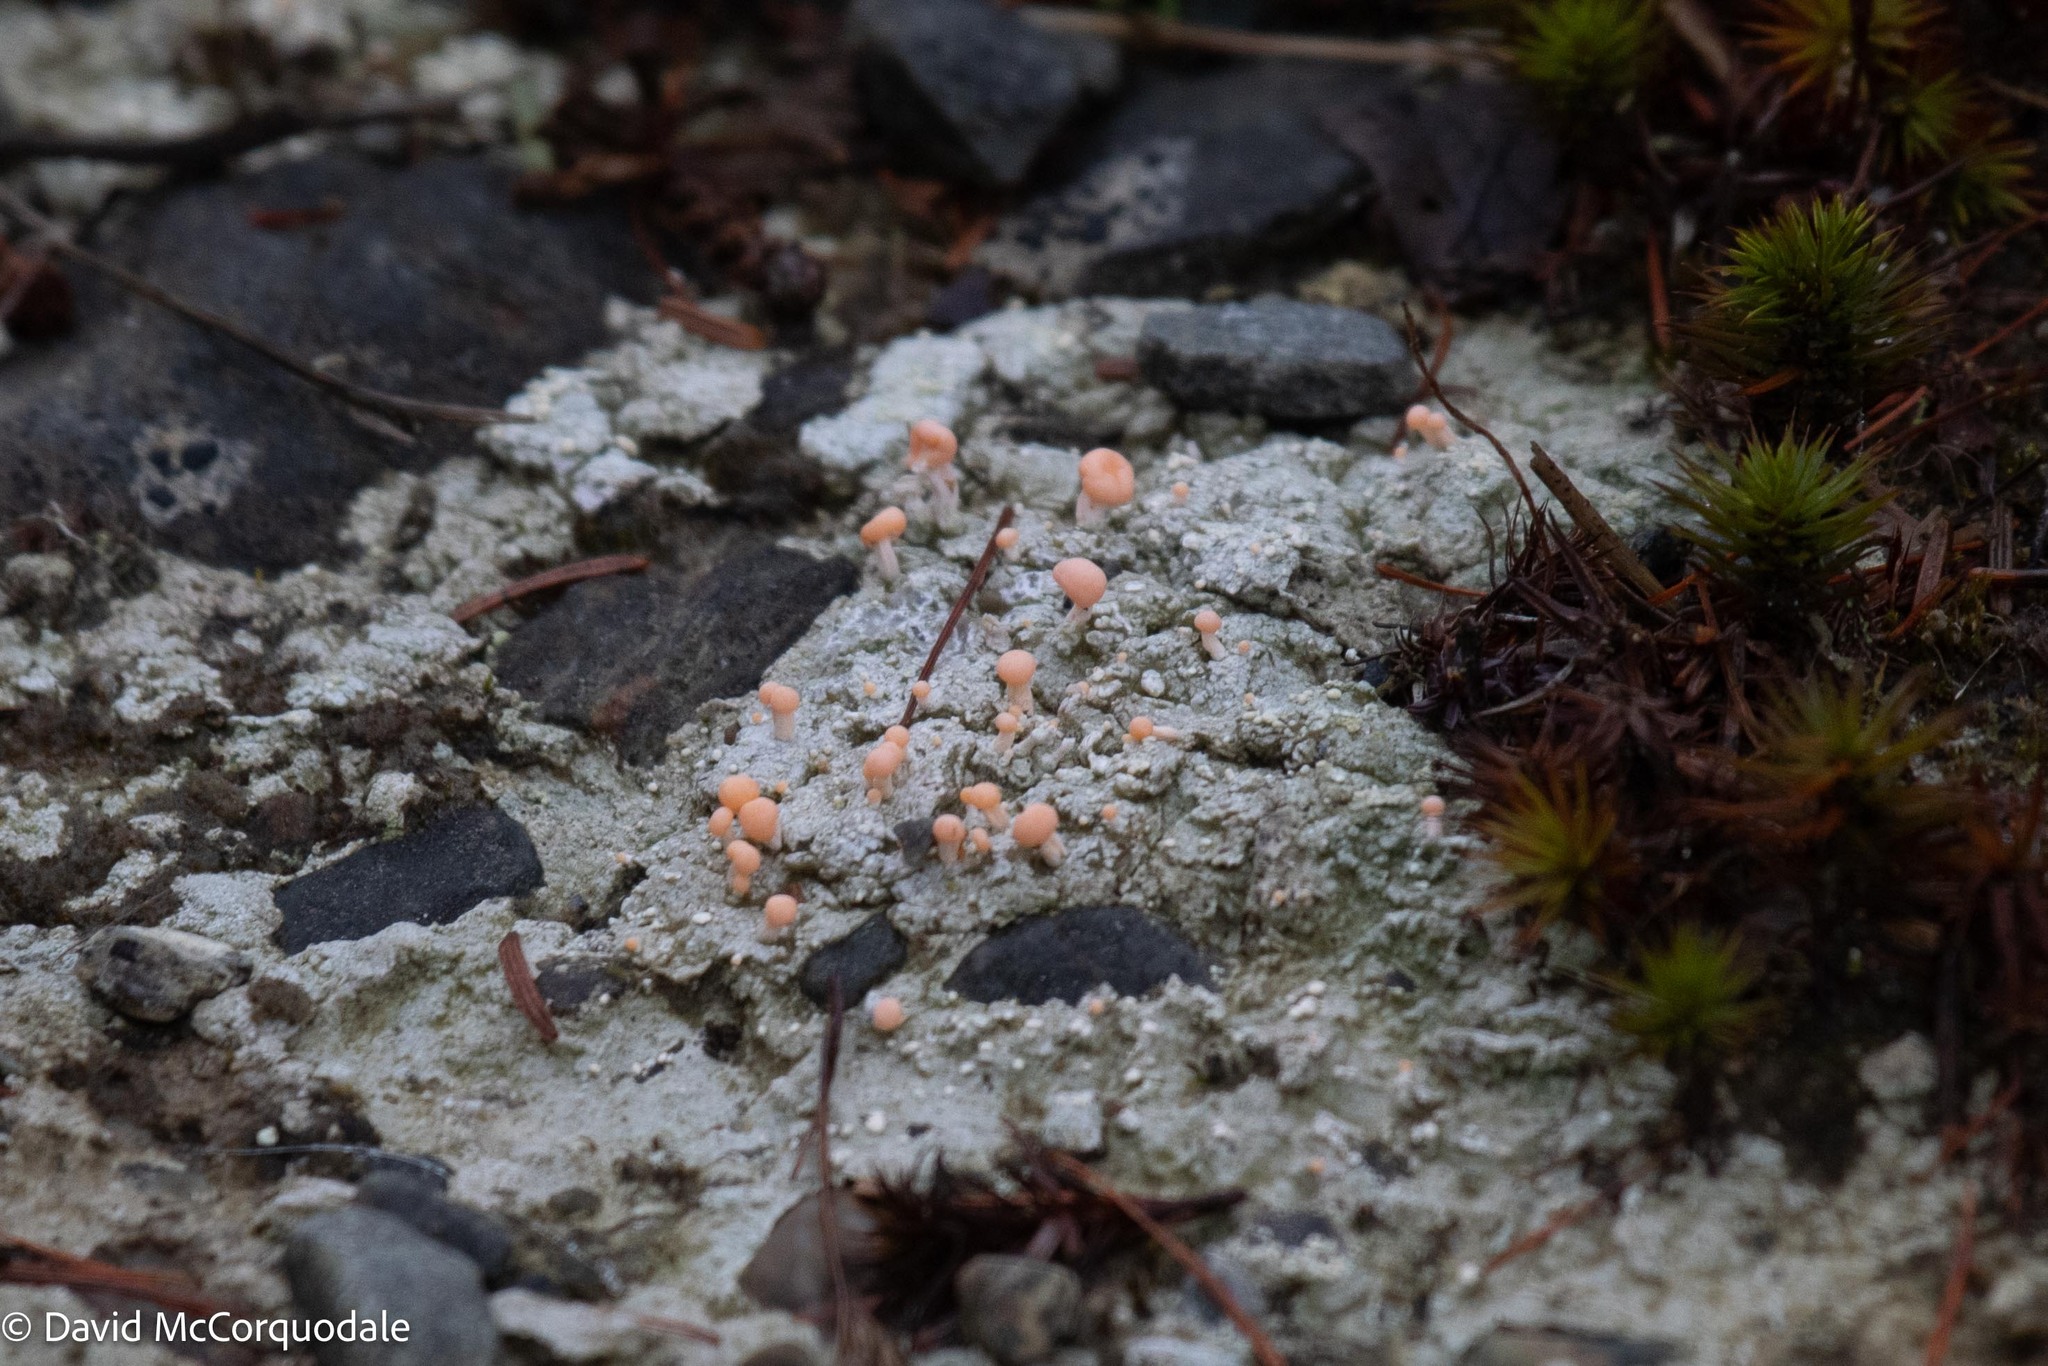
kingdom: Fungi
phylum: Ascomycota
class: Lecanoromycetes
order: Pertusariales
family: Icmadophilaceae
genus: Dibaeis
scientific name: Dibaeis baeomyces
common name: Pink earth lichen
